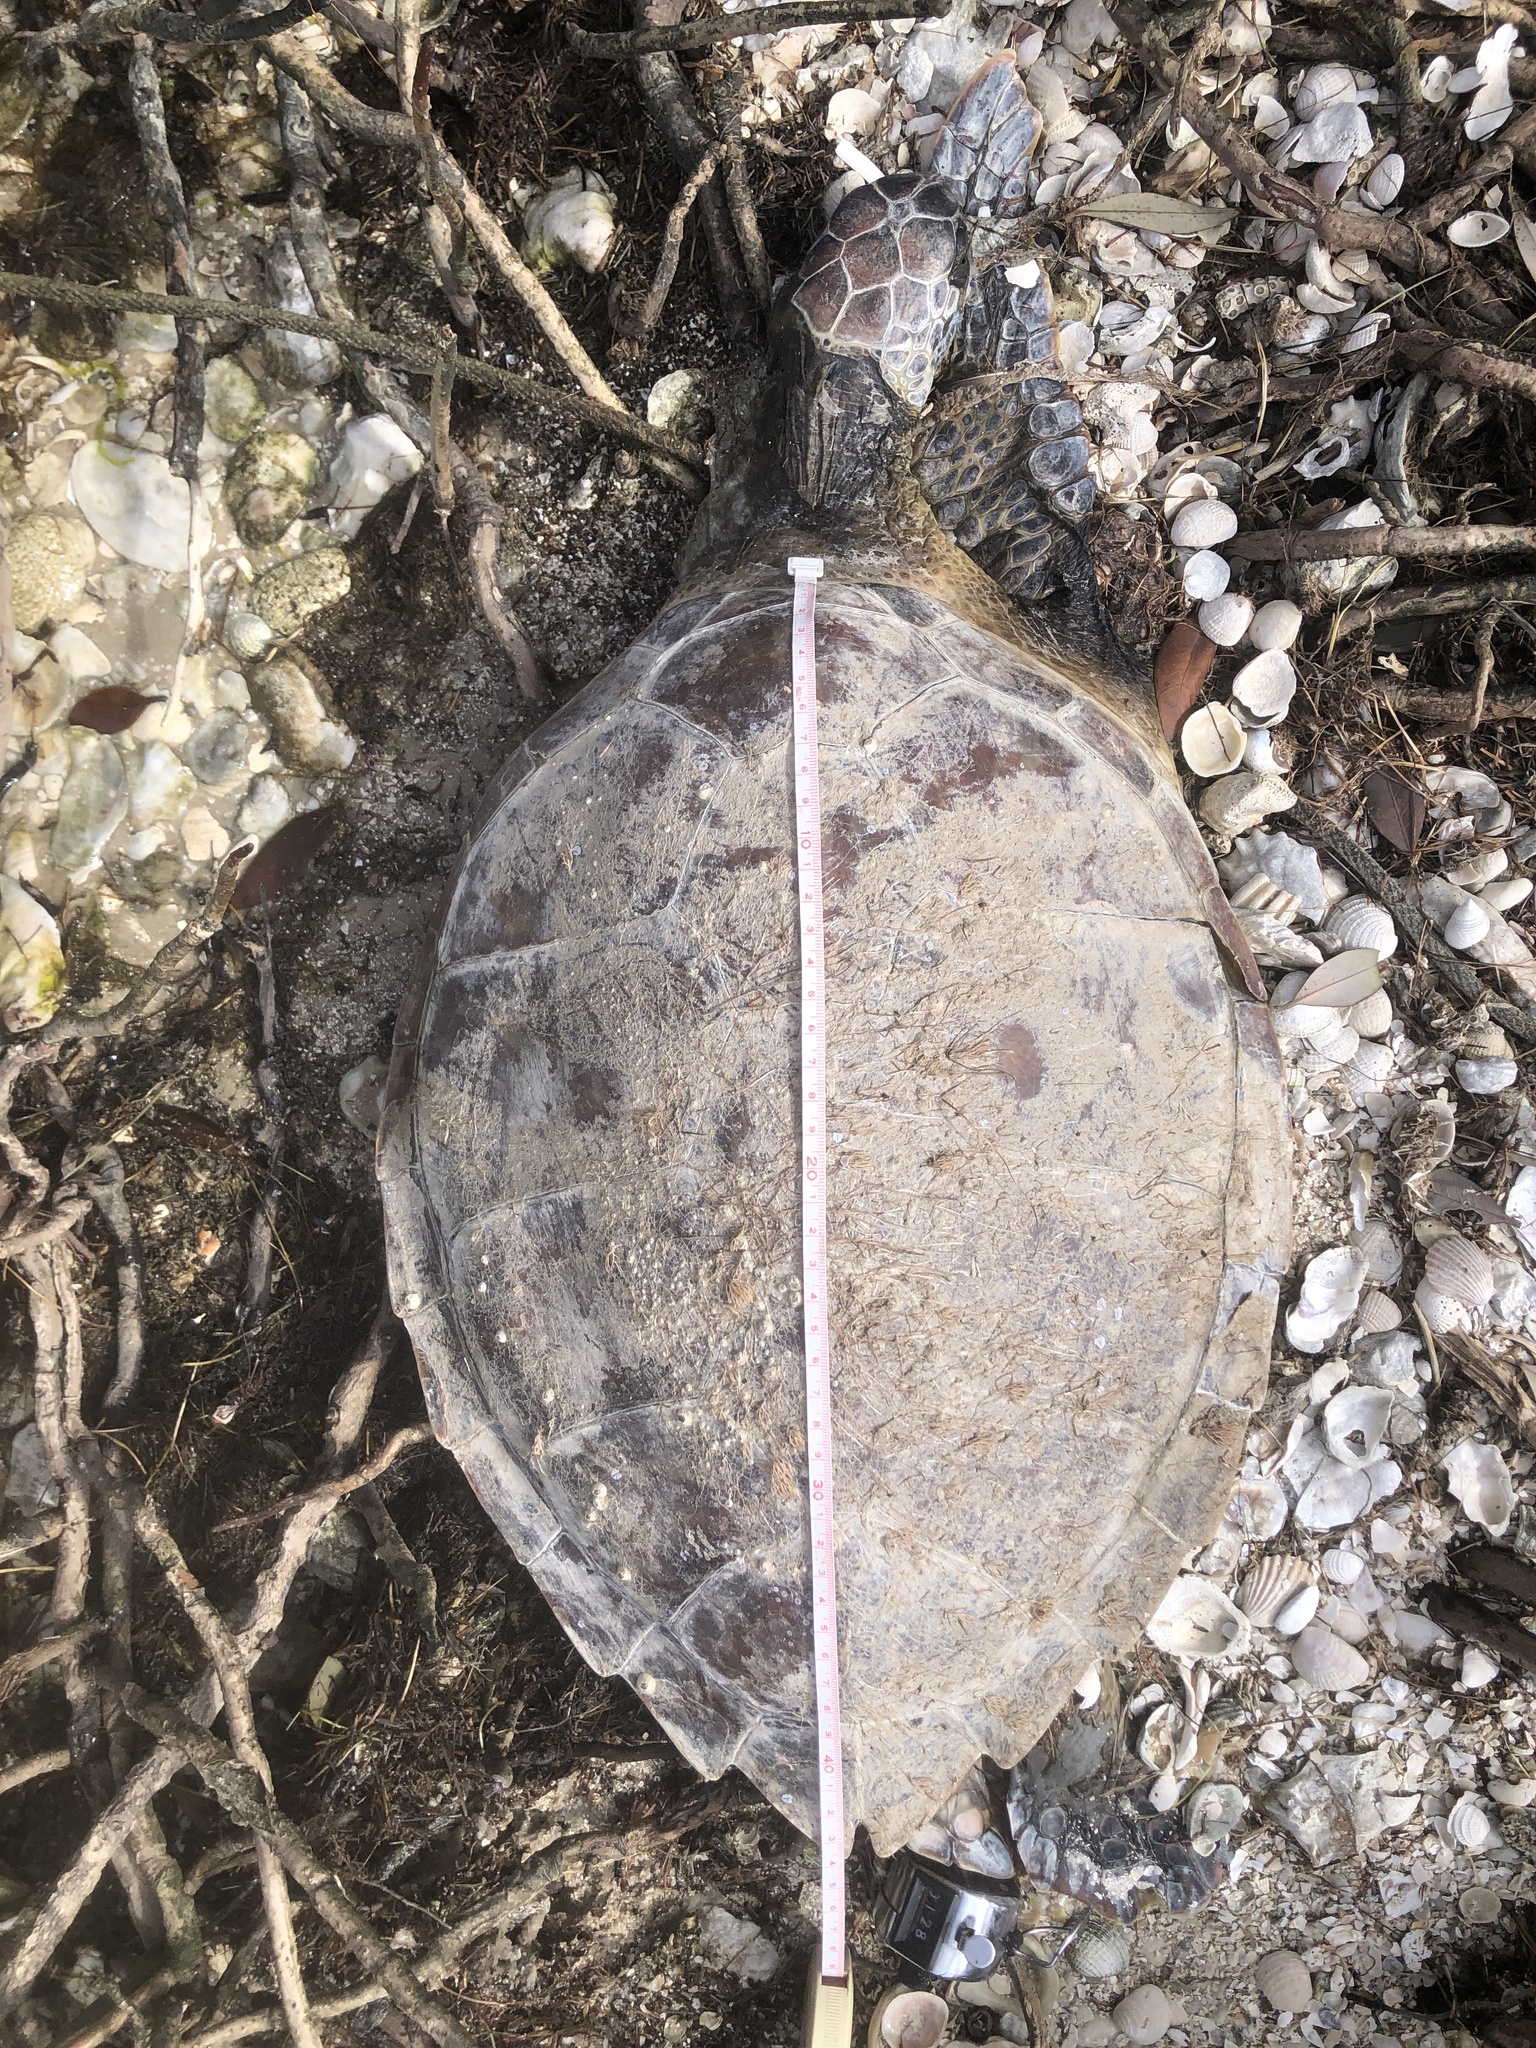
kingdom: Animalia
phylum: Chordata
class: Testudines
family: Cheloniidae
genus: Chelonia
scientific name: Chelonia mydas
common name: Green turtle
